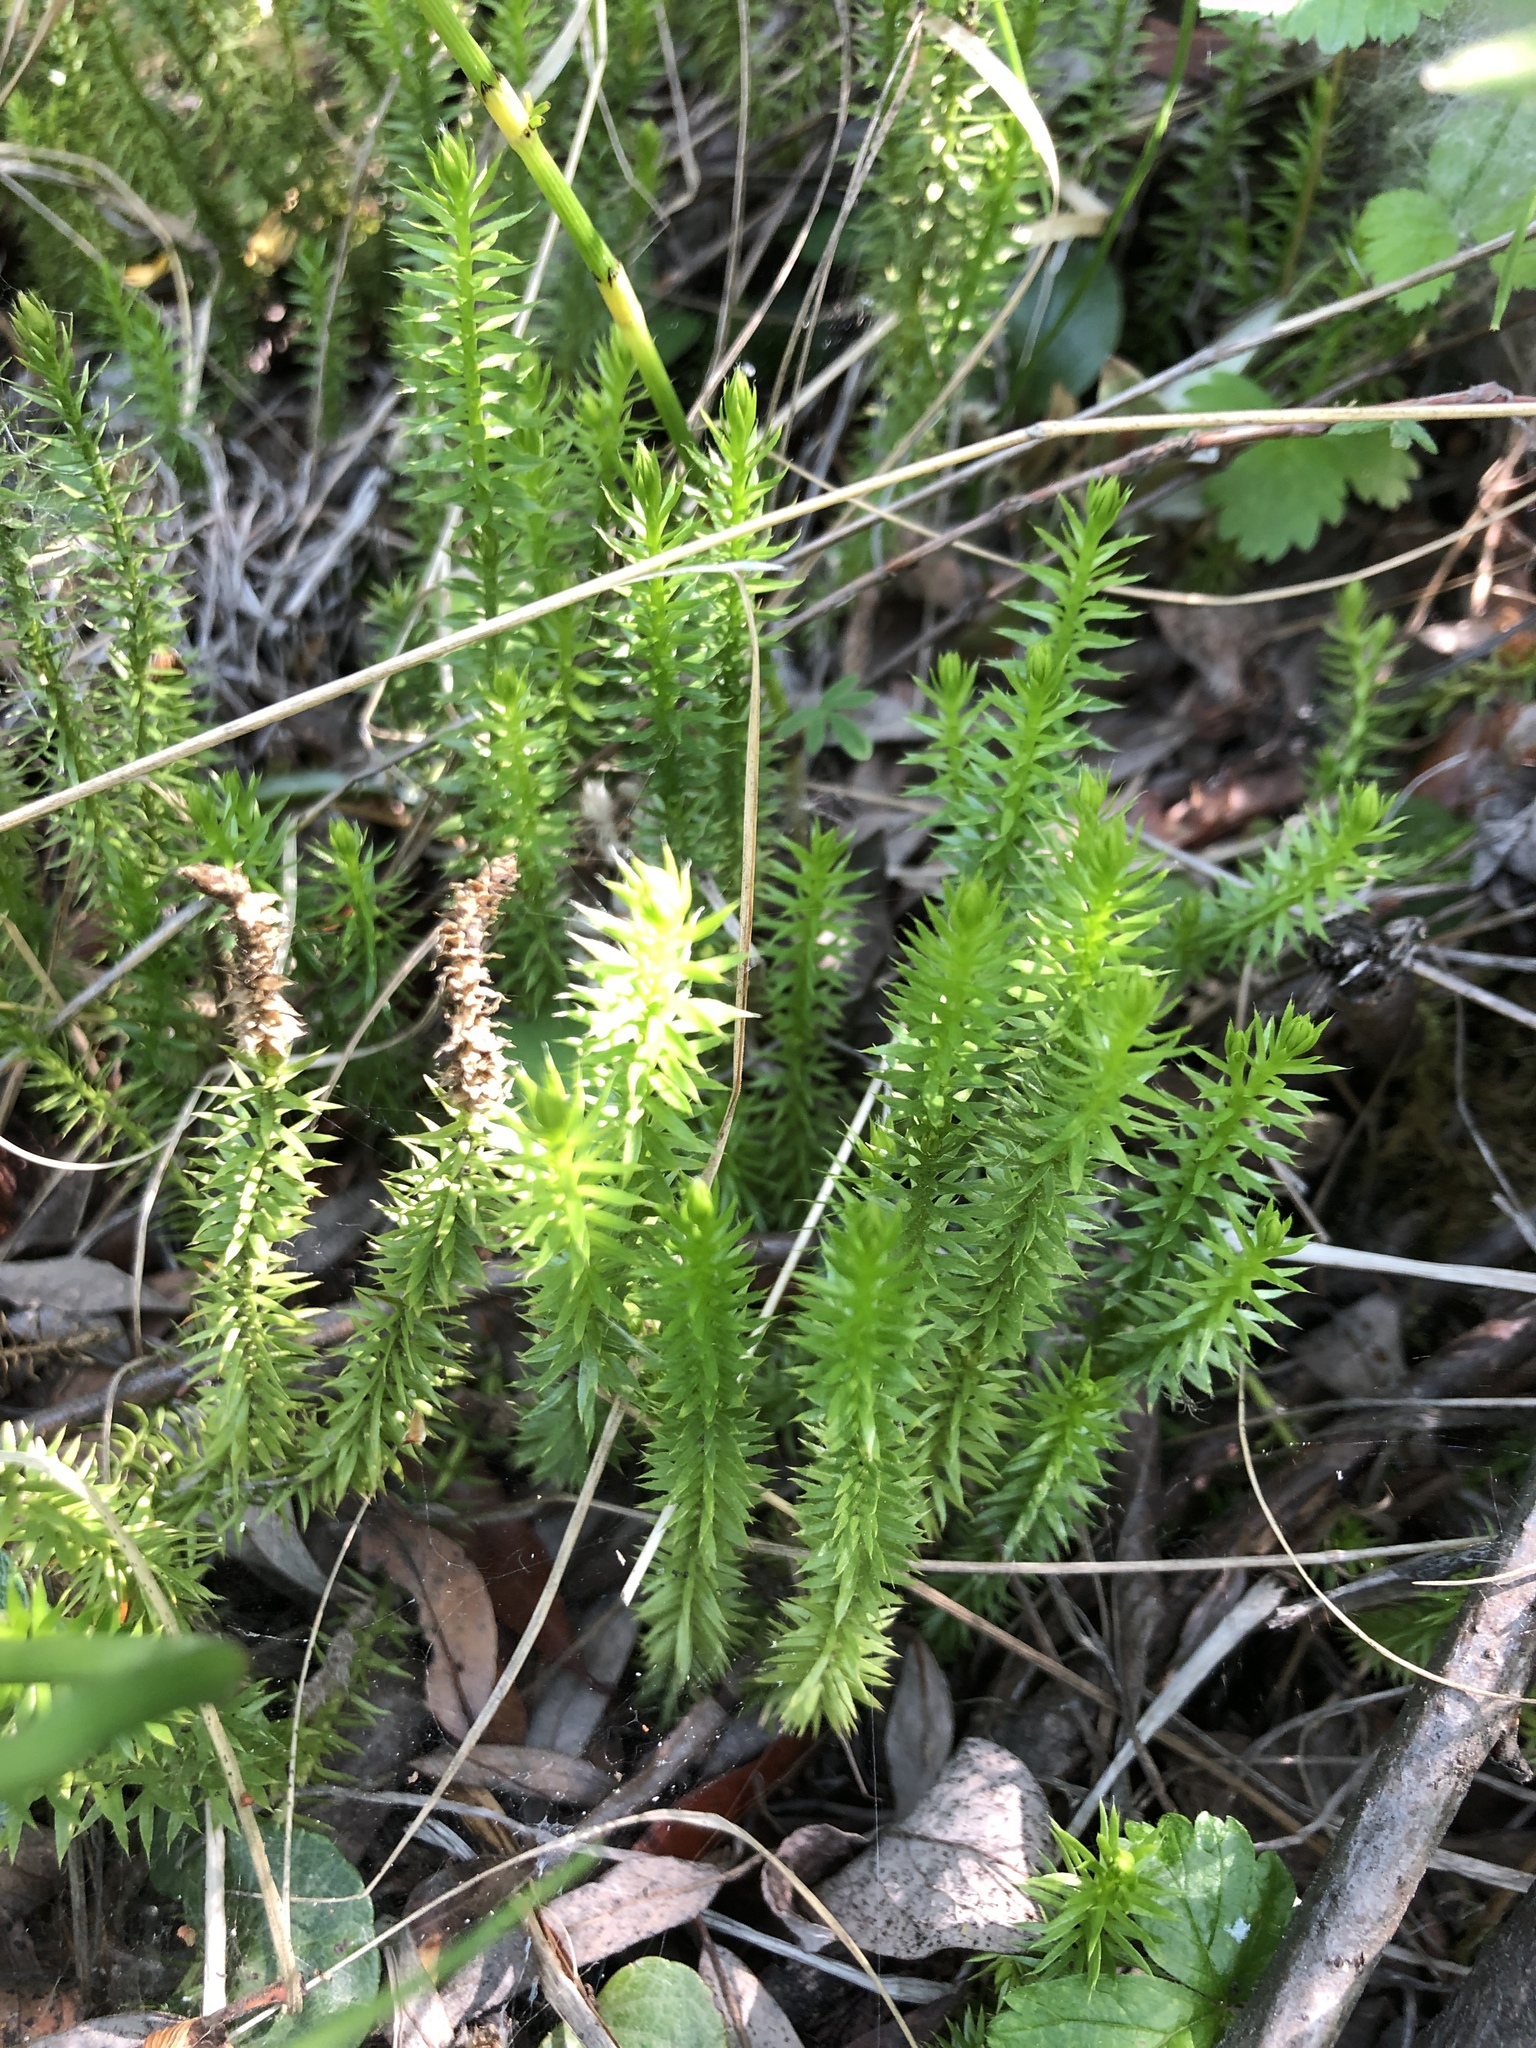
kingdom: Plantae
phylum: Tracheophyta
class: Lycopodiopsida
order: Lycopodiales
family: Lycopodiaceae
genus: Spinulum
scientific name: Spinulum annotinum
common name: Interrupted club-moss
